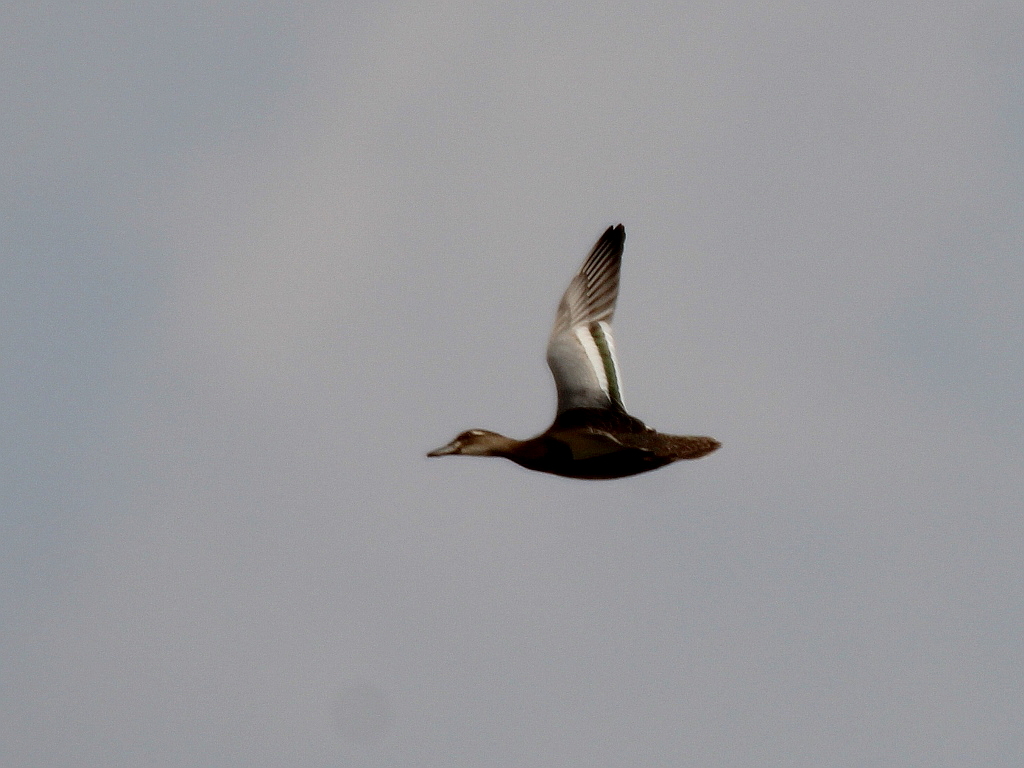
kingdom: Animalia
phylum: Chordata
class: Aves
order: Anseriformes
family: Anatidae
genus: Spatula
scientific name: Spatula querquedula
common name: Garganey
